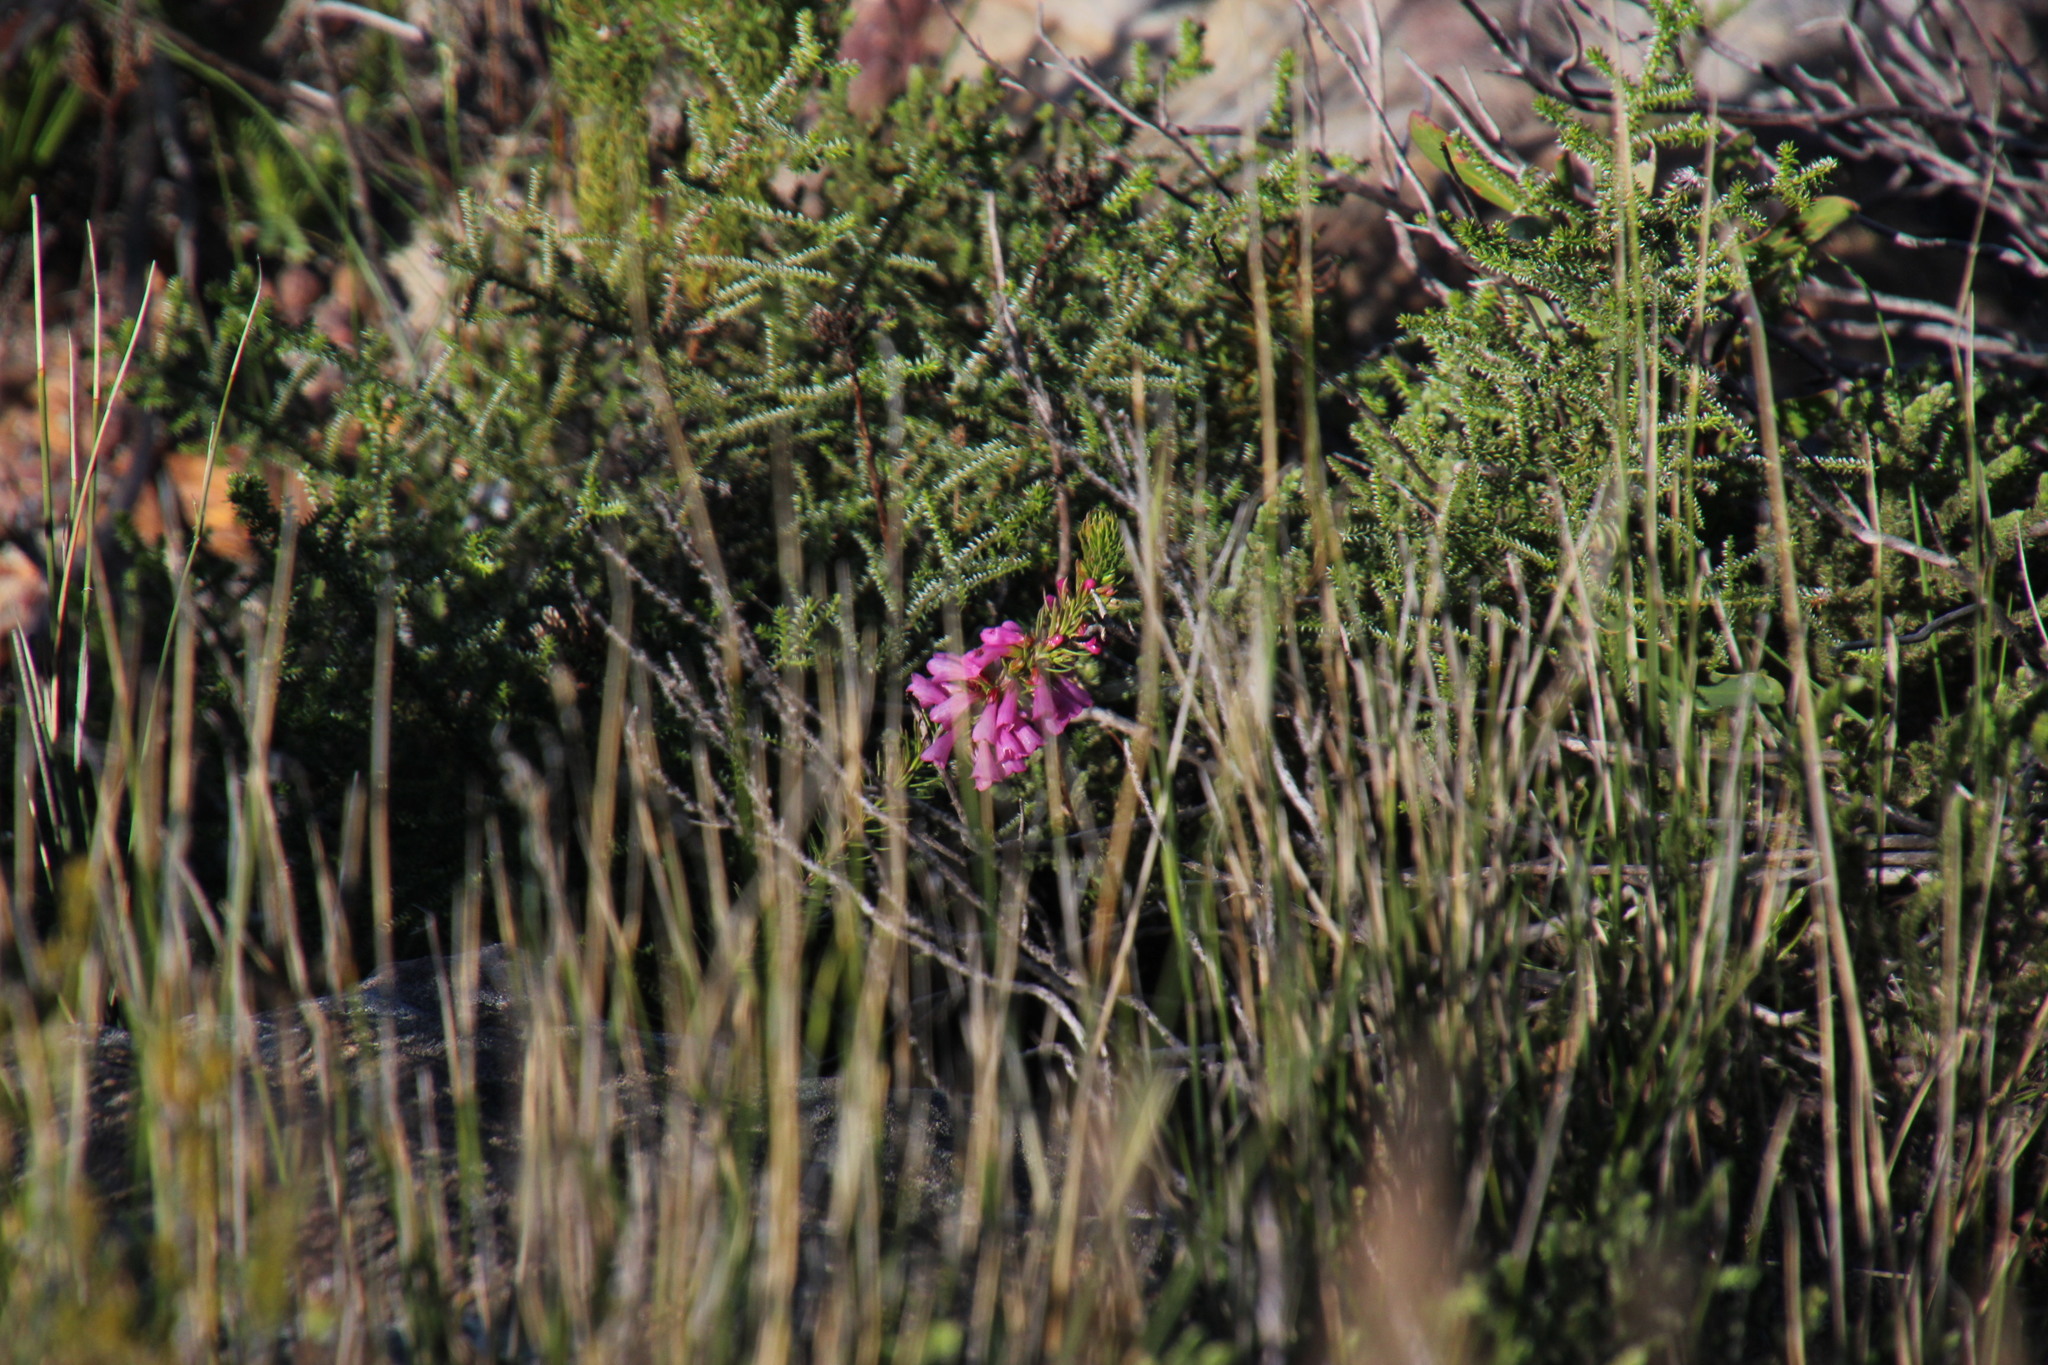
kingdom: Plantae
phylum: Tracheophyta
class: Magnoliopsida
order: Ericales
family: Ericaceae
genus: Erica
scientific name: Erica abietina
